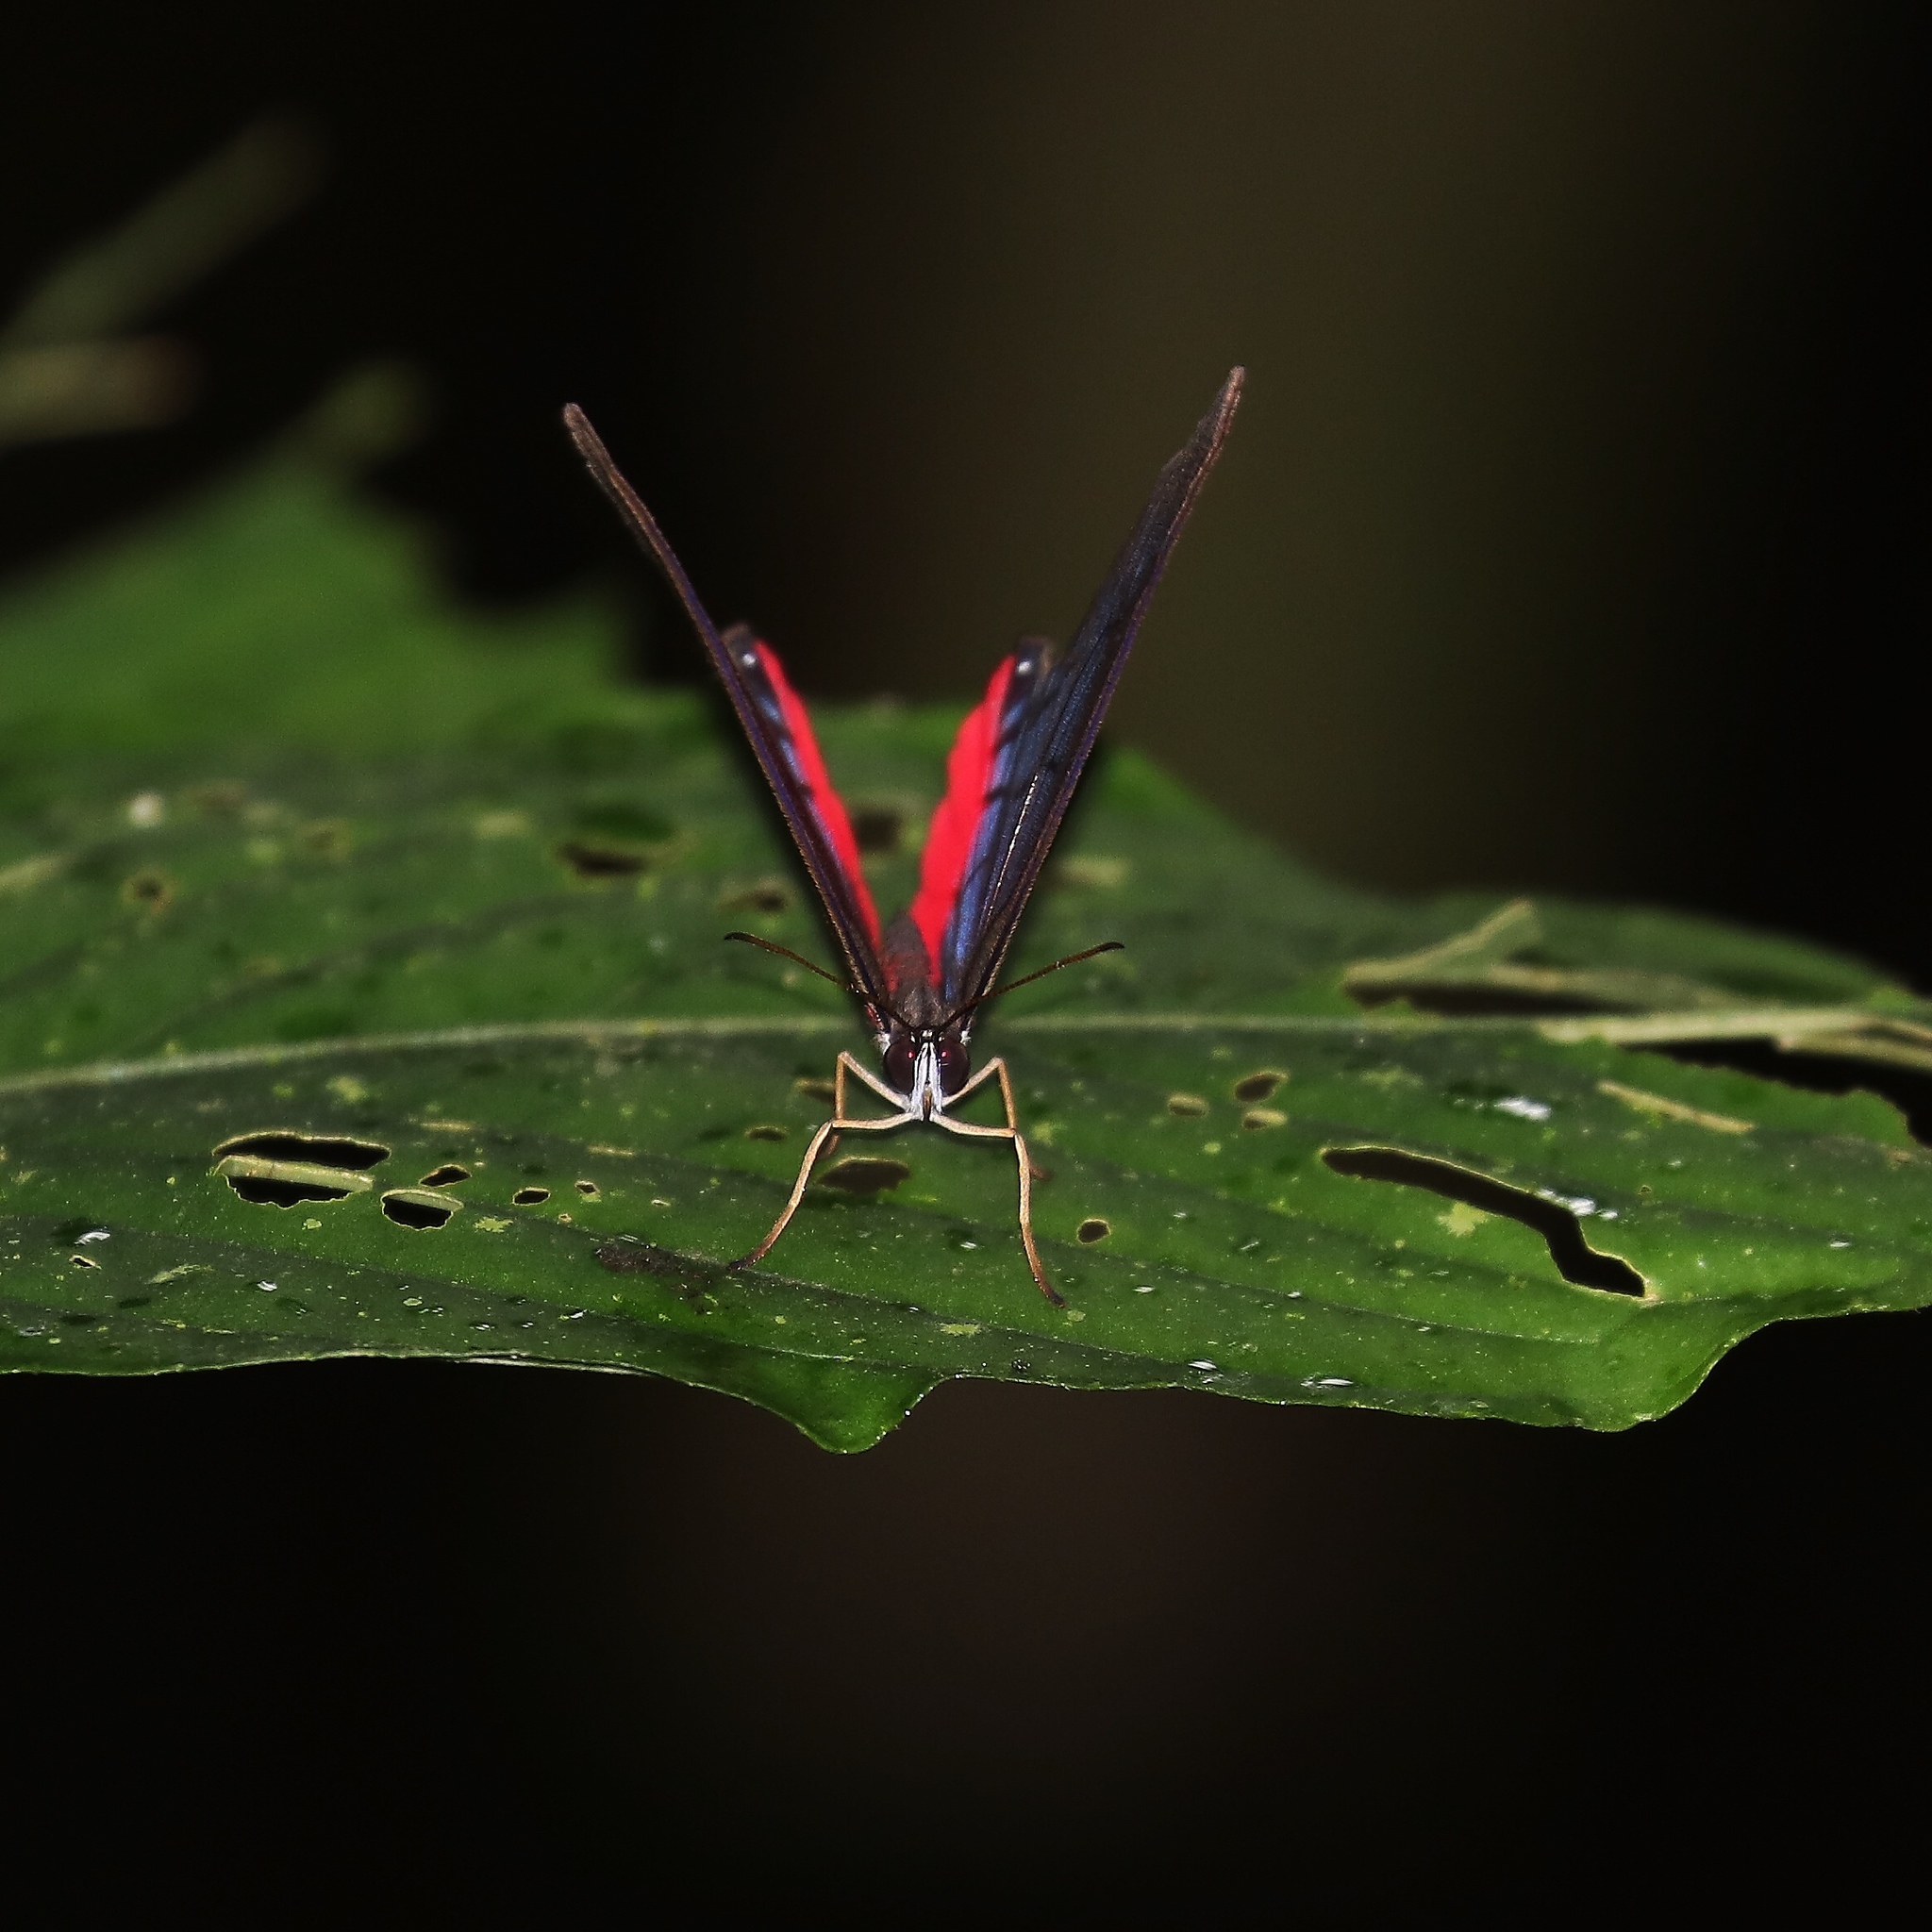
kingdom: Animalia
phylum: Arthropoda
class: Insecta
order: Lepidoptera
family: Nymphalidae
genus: Cithaerias
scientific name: Cithaerias pireta
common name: Rusted clearwing-satyr
